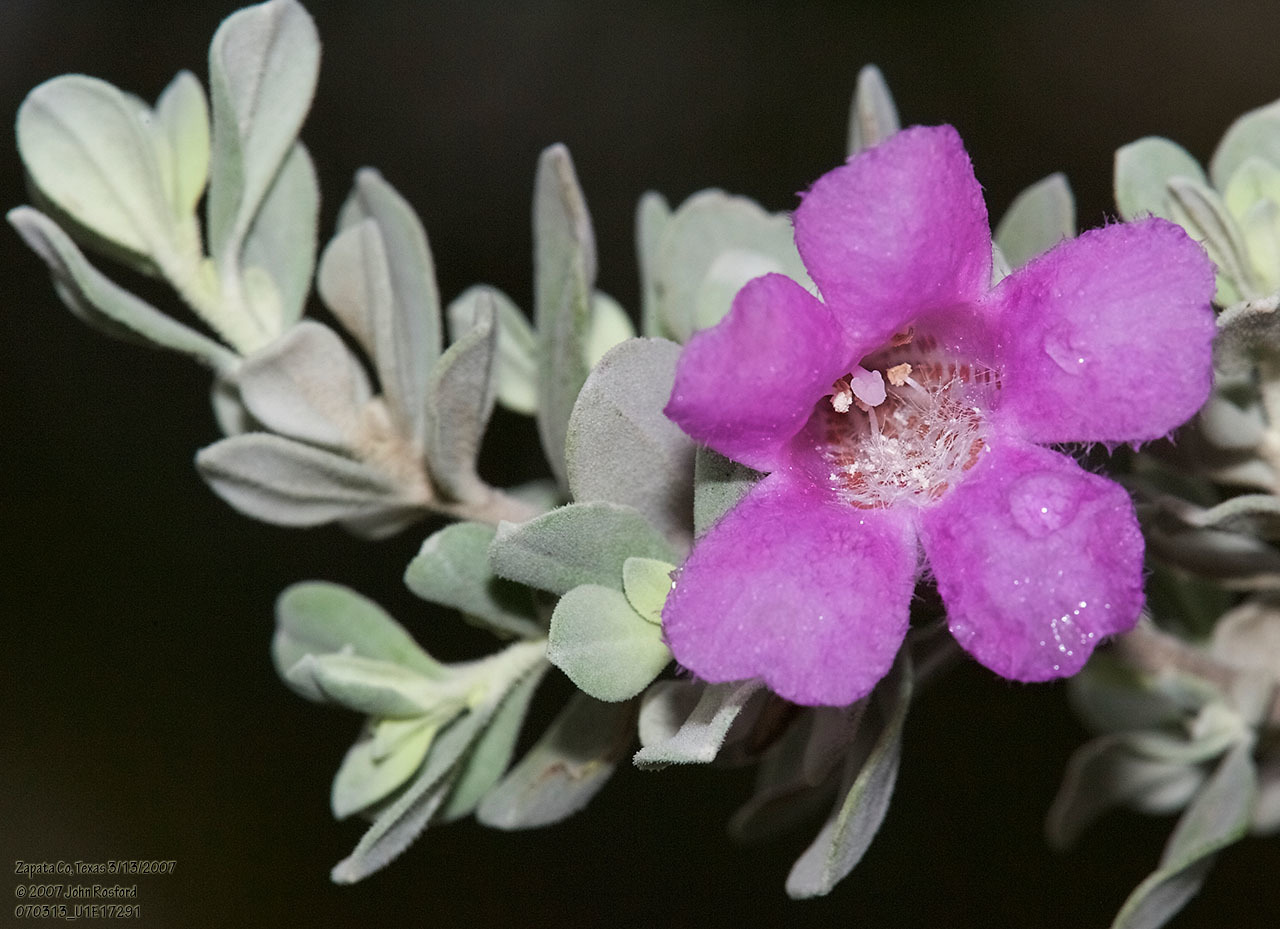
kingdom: Plantae
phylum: Tracheophyta
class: Magnoliopsida
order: Lamiales
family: Scrophulariaceae
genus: Leucophyllum
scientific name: Leucophyllum frutescens
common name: Texas silverleaf
